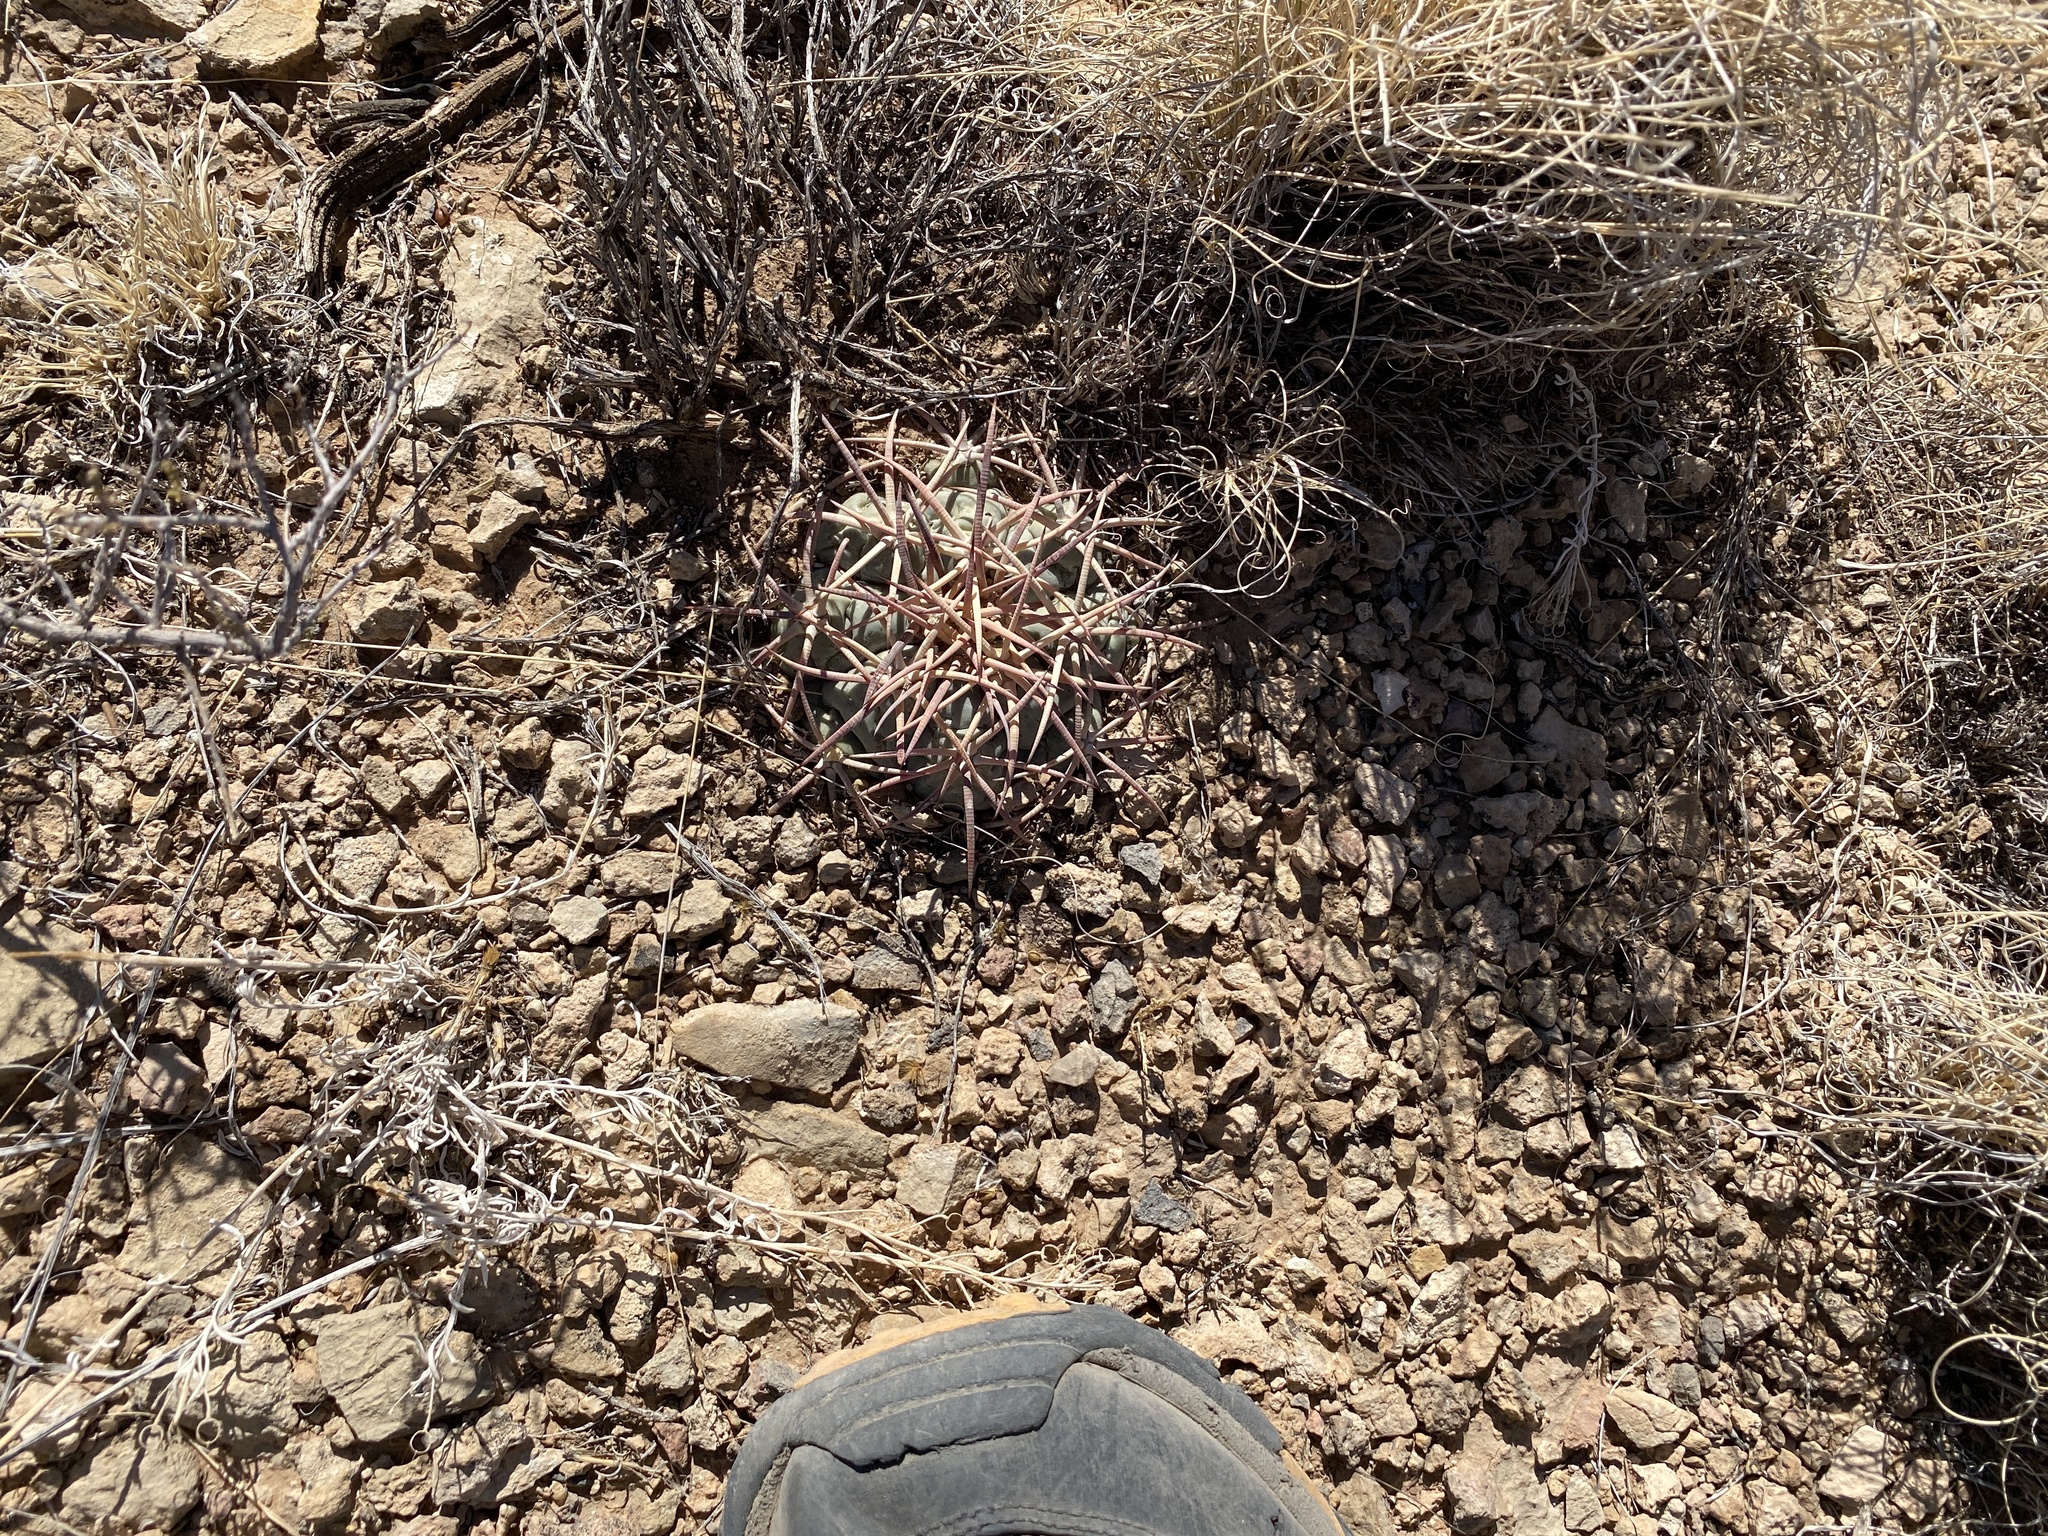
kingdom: Plantae
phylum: Tracheophyta
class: Magnoliopsida
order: Caryophyllales
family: Cactaceae
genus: Echinocactus
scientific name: Echinocactus horizonthalonius
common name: Devilshead
